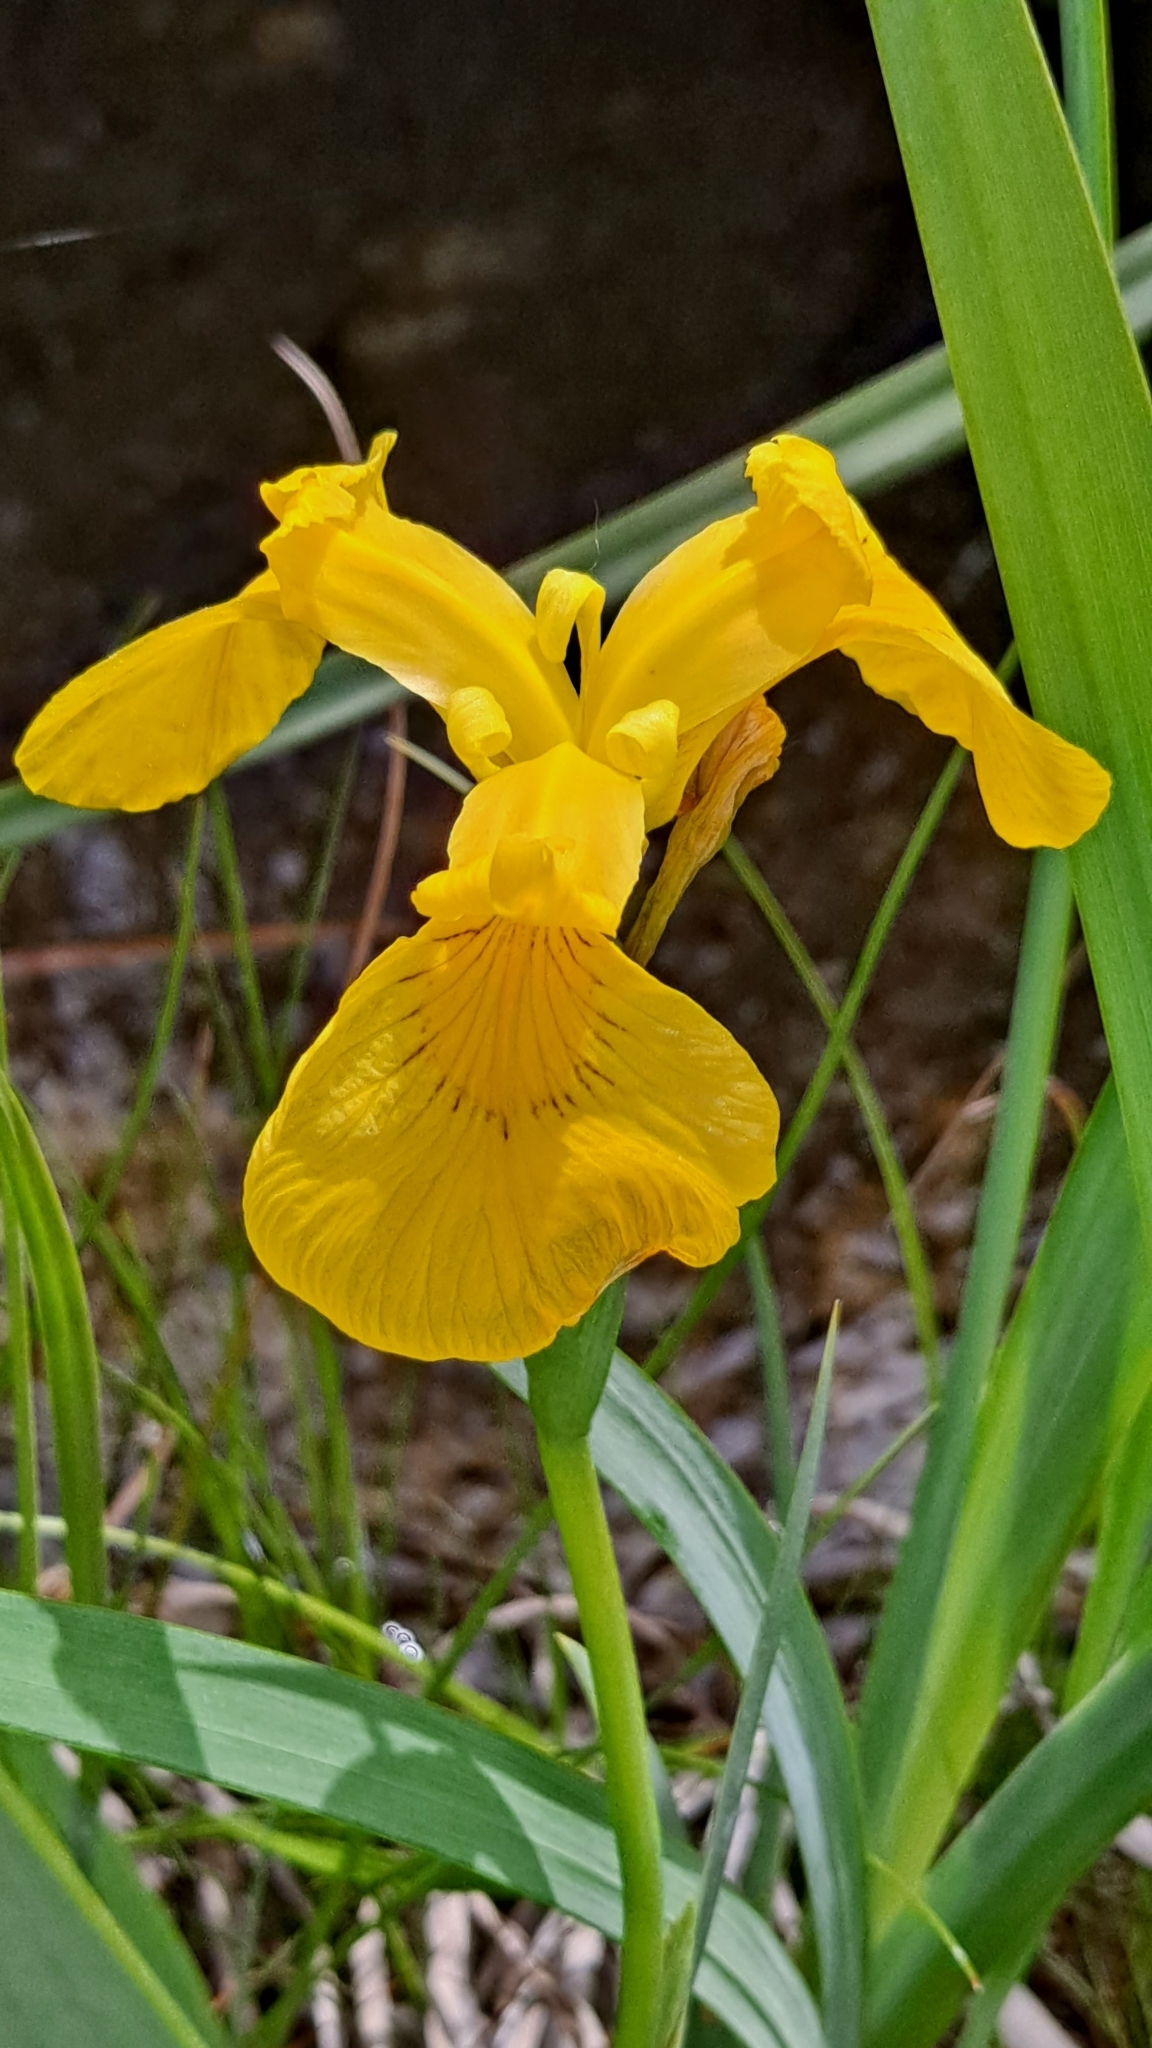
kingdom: Plantae
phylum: Tracheophyta
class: Liliopsida
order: Asparagales
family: Iridaceae
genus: Iris
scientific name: Iris pseudacorus
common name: Yellow flag
